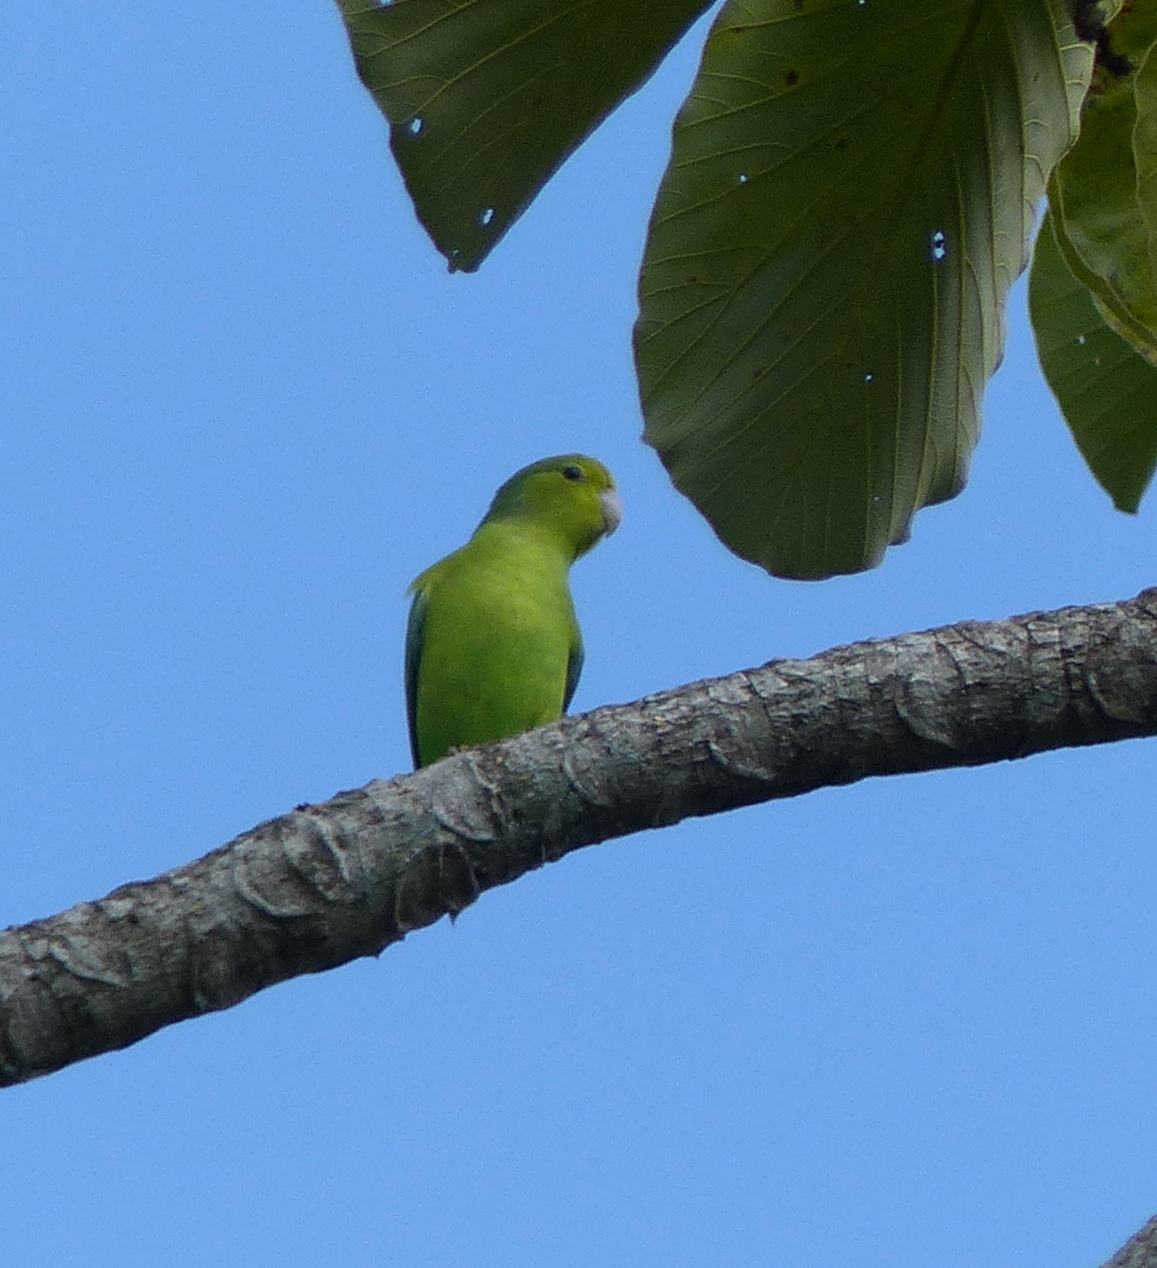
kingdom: Animalia
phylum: Chordata
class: Aves
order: Psittaciformes
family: Psittacidae
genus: Forpus
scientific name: Forpus xanthopterygius
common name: Blue-winged parrotlet
